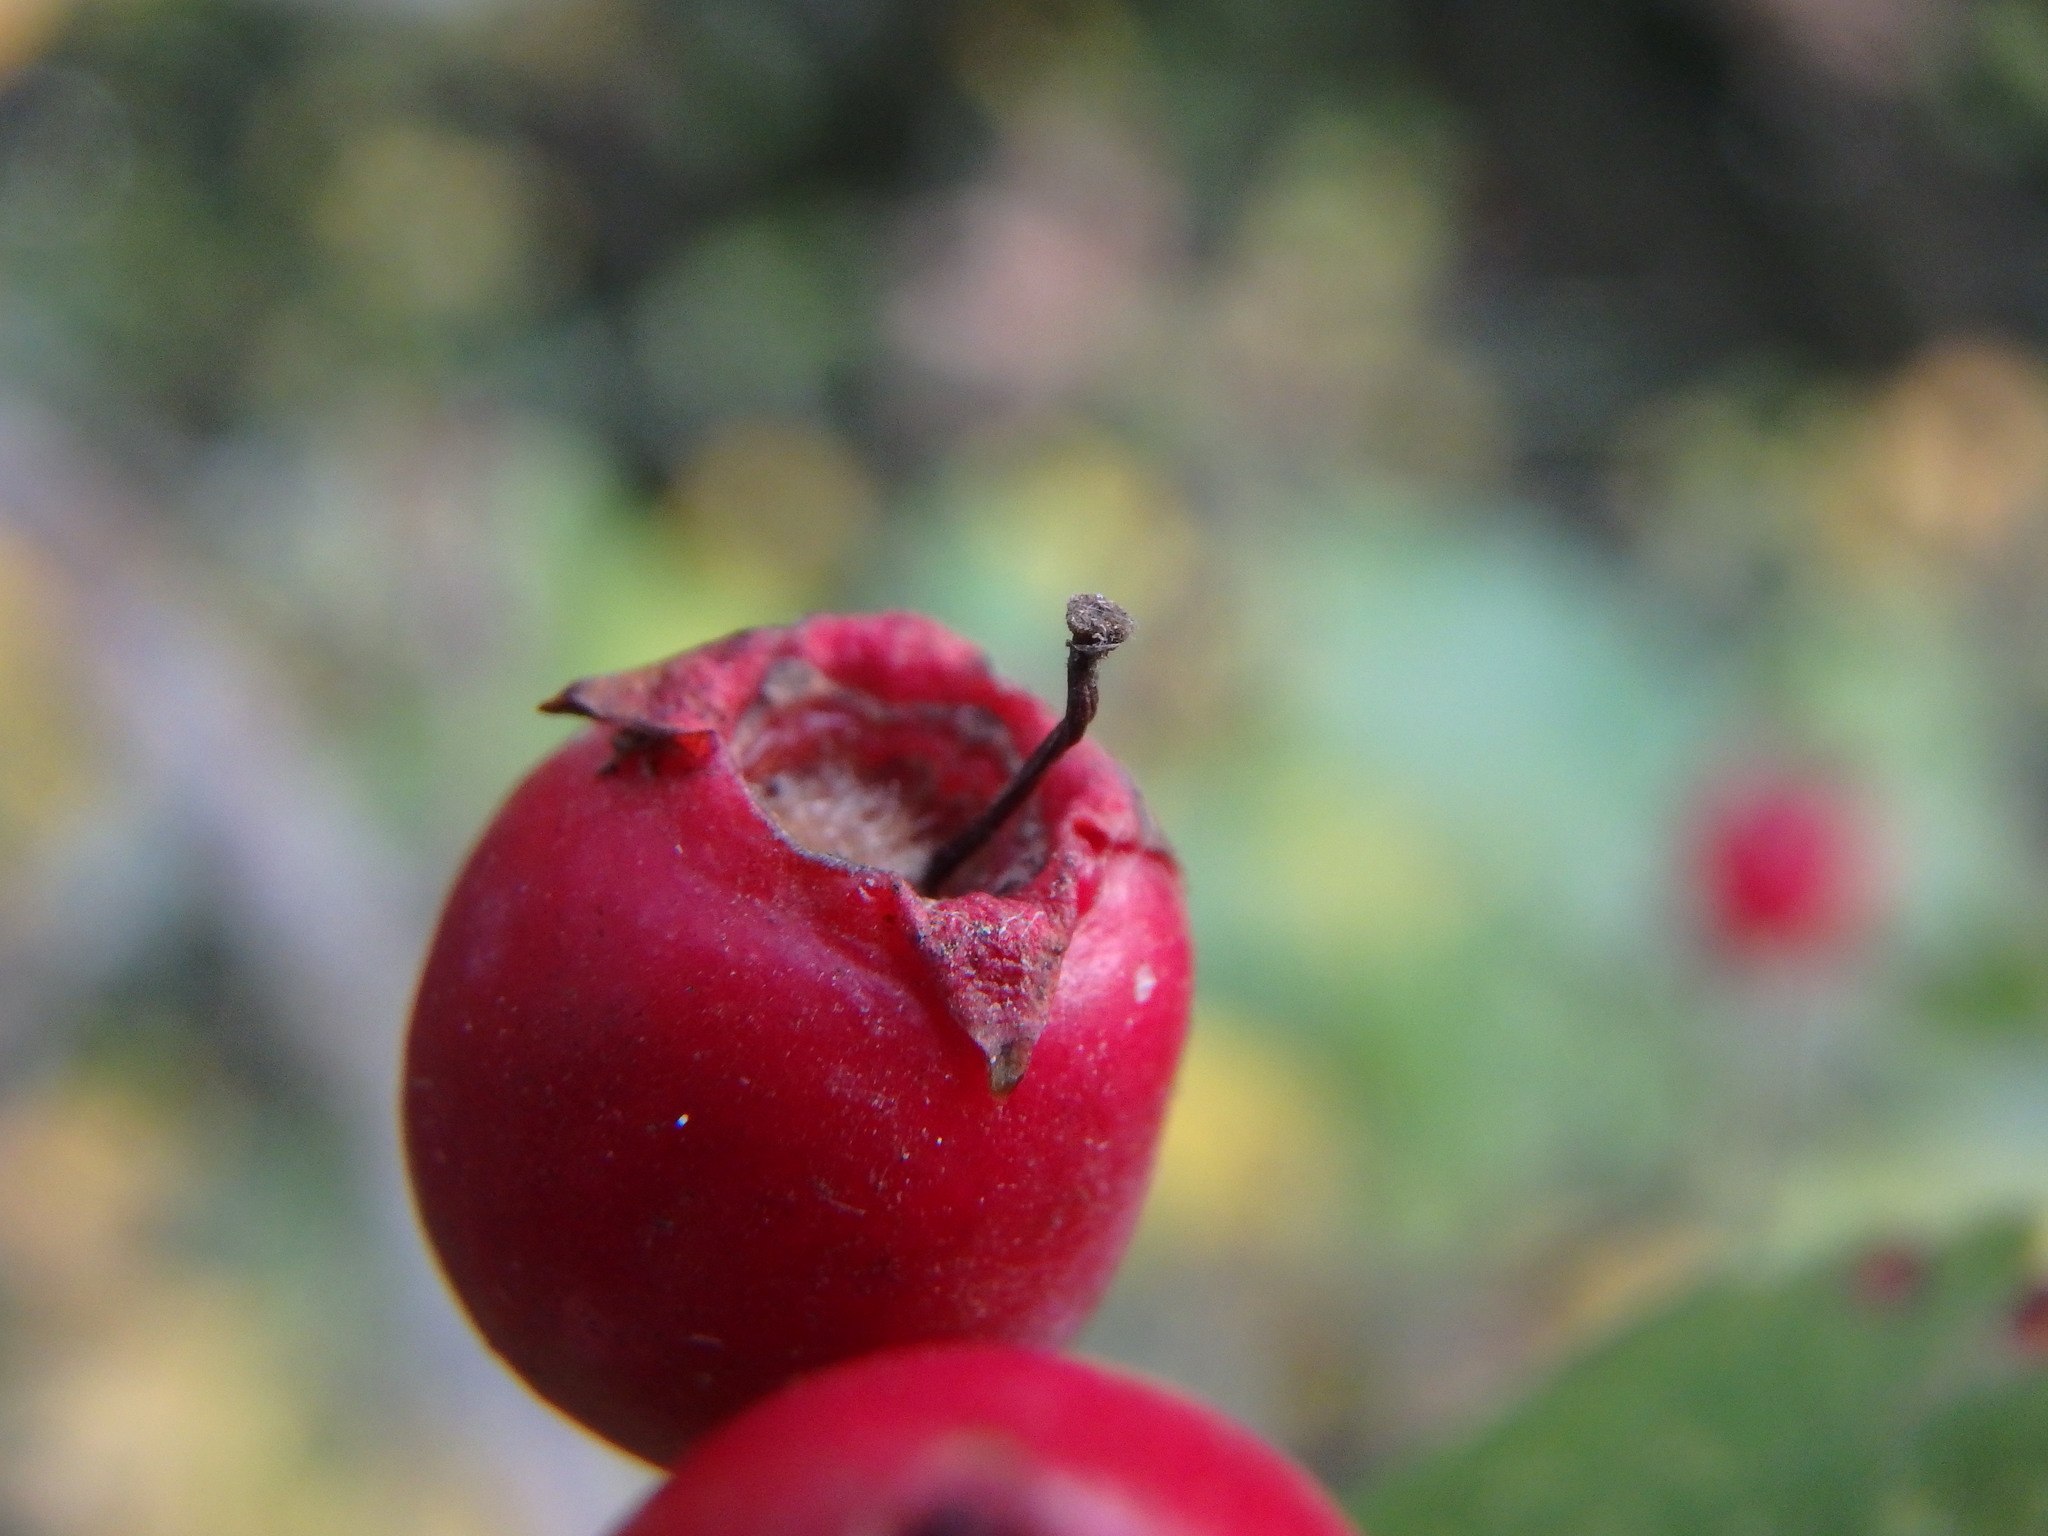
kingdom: Plantae
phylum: Tracheophyta
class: Magnoliopsida
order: Rosales
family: Rosaceae
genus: Crataegus
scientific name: Crataegus media
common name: Intermediate hawthorn
